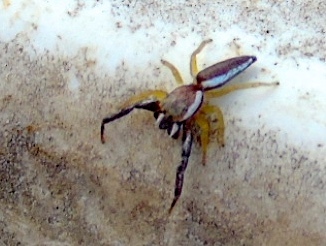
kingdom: Animalia
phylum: Arthropoda
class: Arachnida
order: Araneae
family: Salticidae
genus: Hentzia
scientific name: Hentzia palmarum
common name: Common hentz jumping spider
